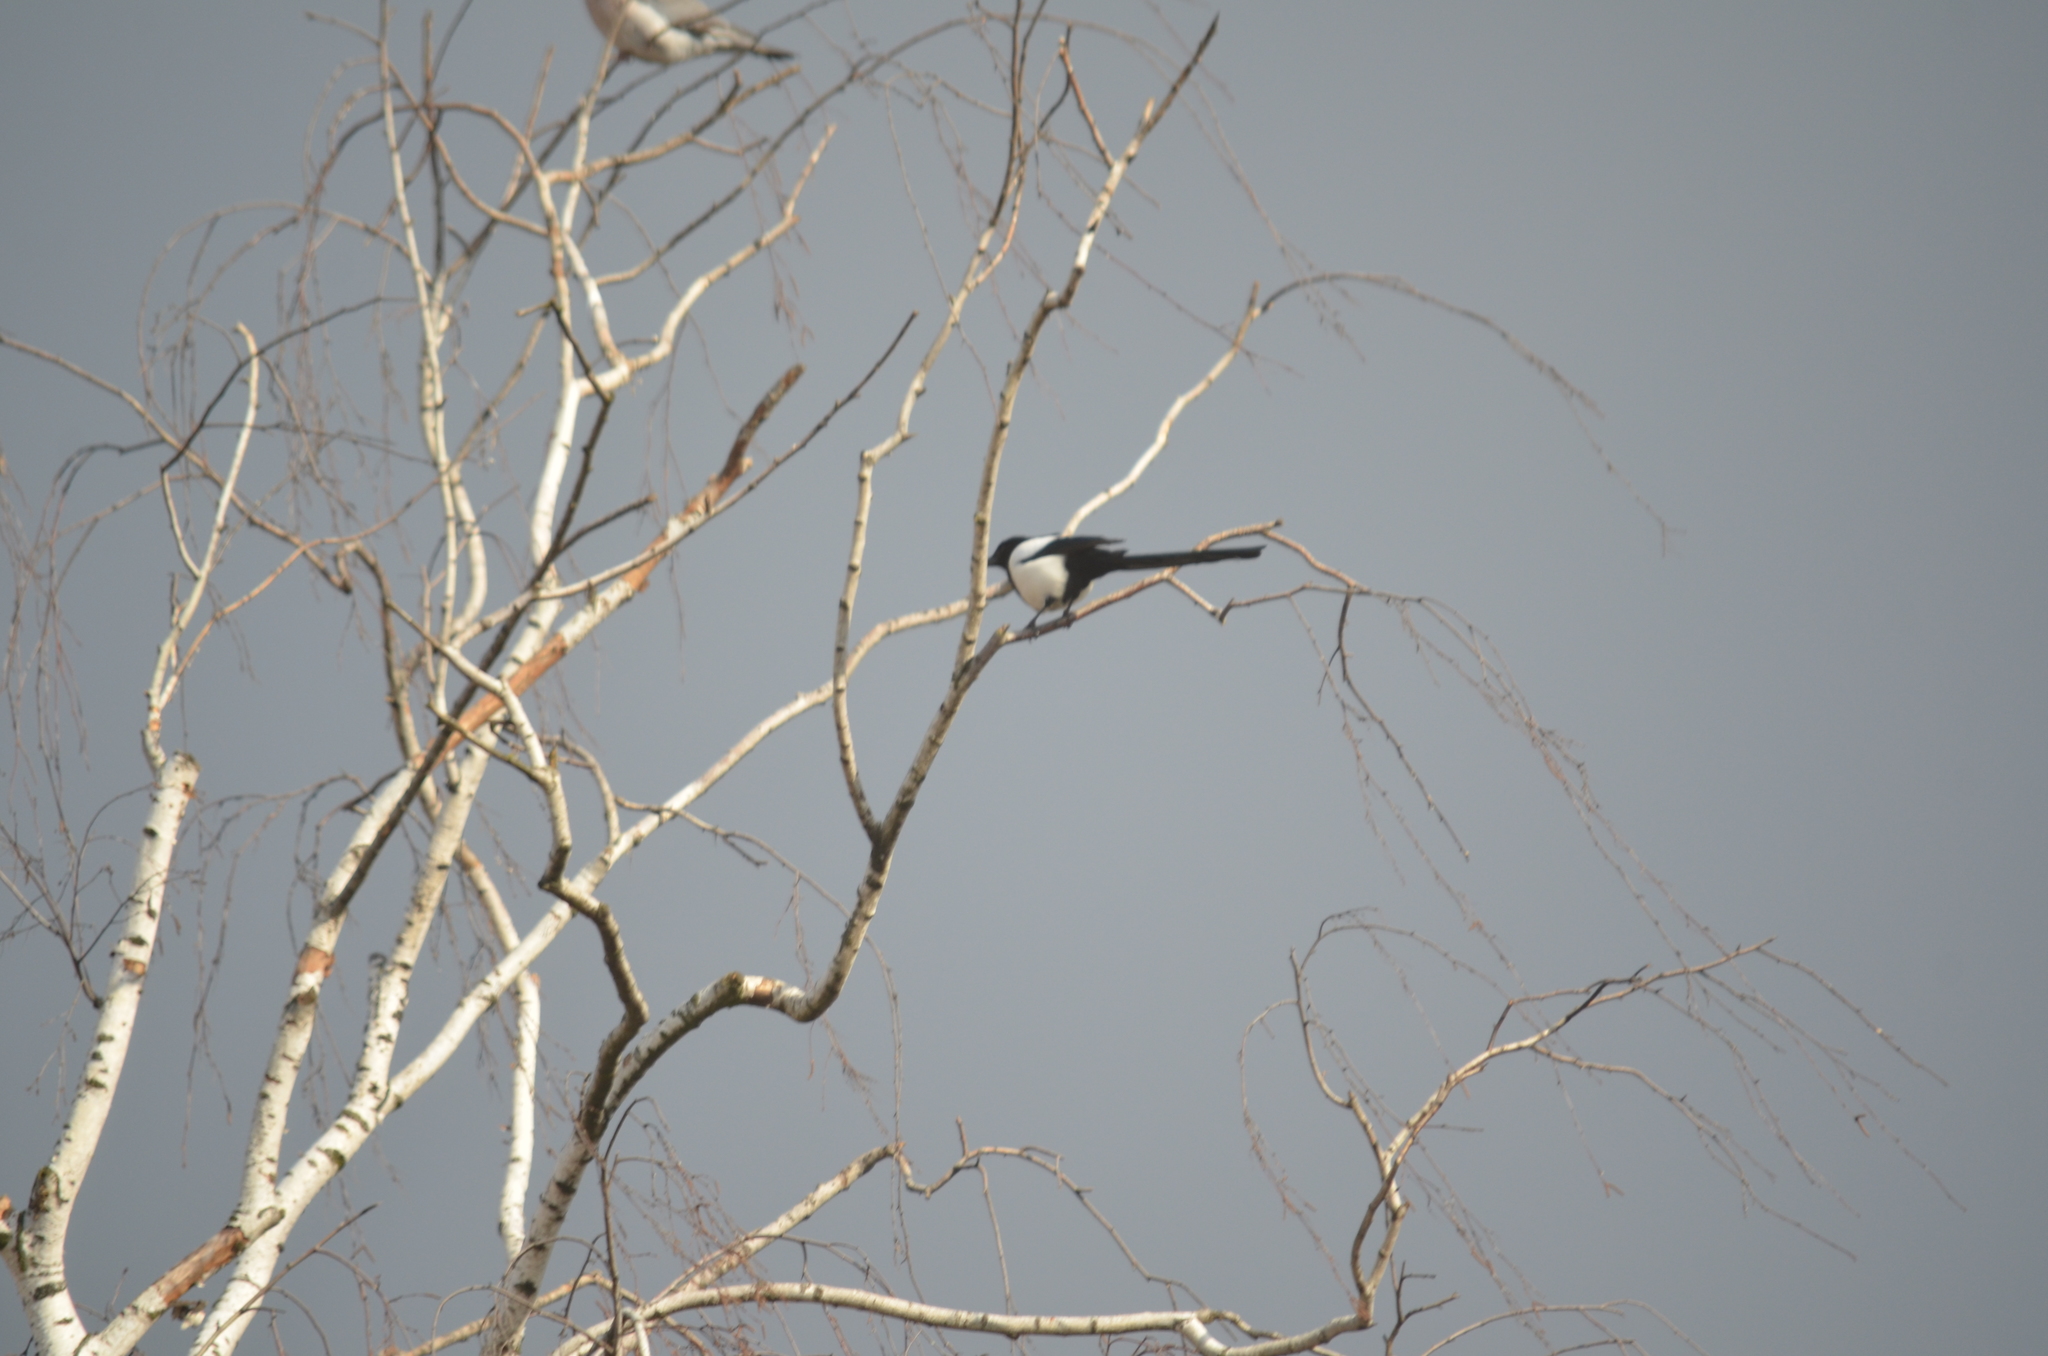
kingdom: Animalia
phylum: Chordata
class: Aves
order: Passeriformes
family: Corvidae
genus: Pica
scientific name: Pica pica
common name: Eurasian magpie
